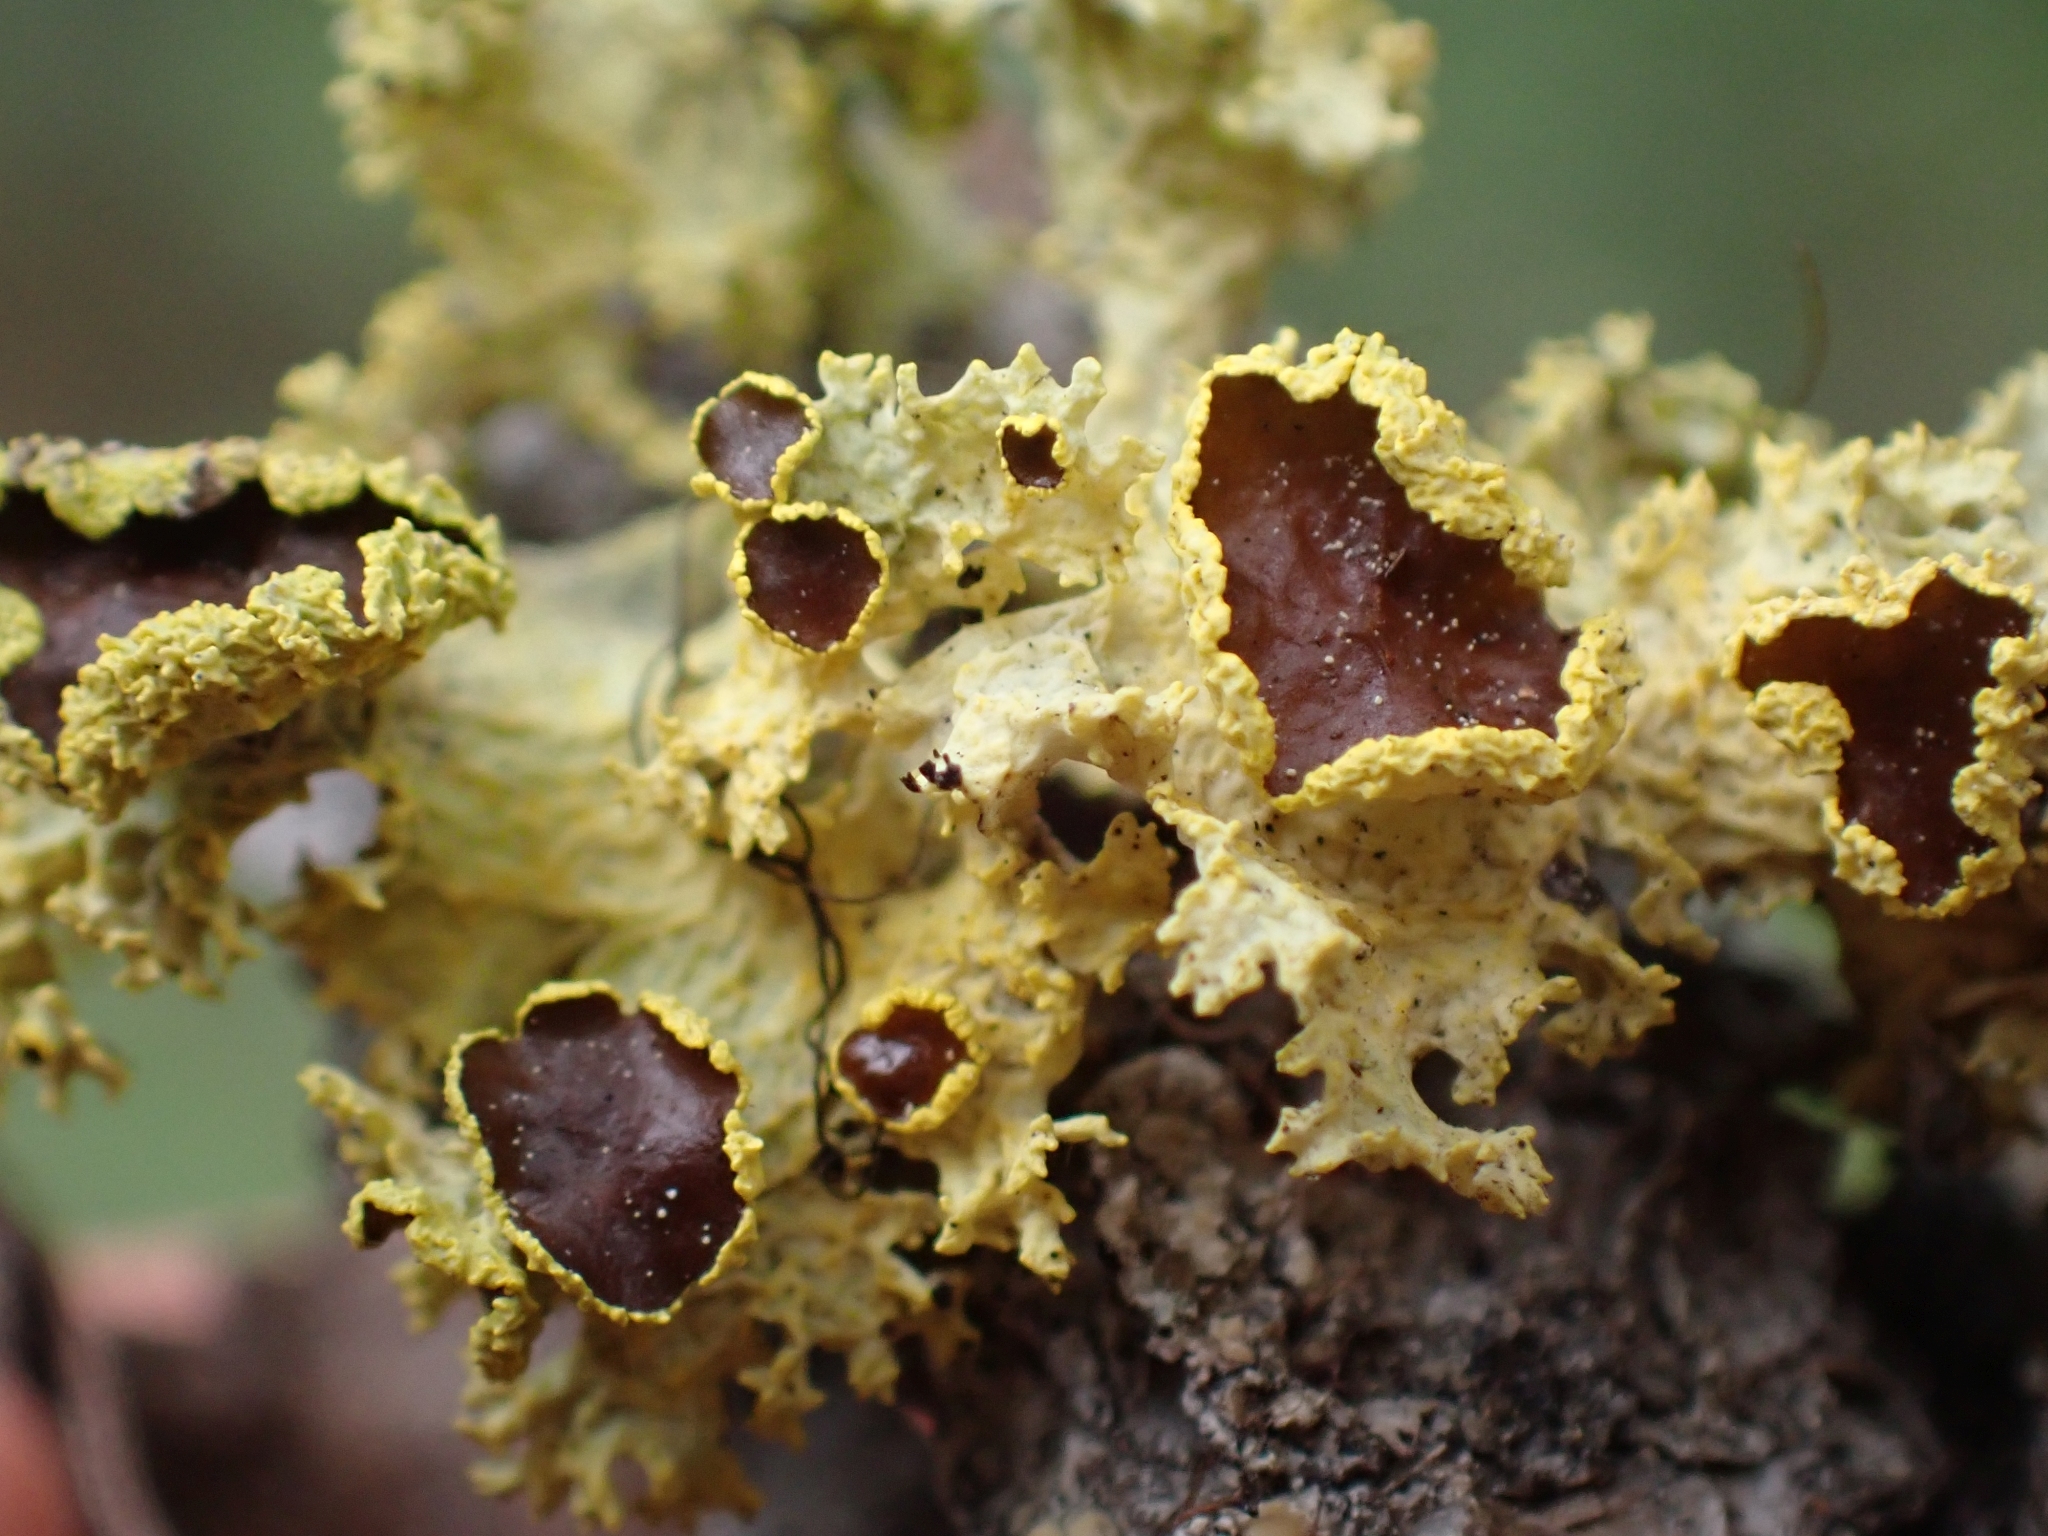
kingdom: Fungi
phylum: Ascomycota
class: Lecanoromycetes
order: Lecanorales
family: Parmeliaceae
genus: Vulpicida
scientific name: Vulpicida canadensis
